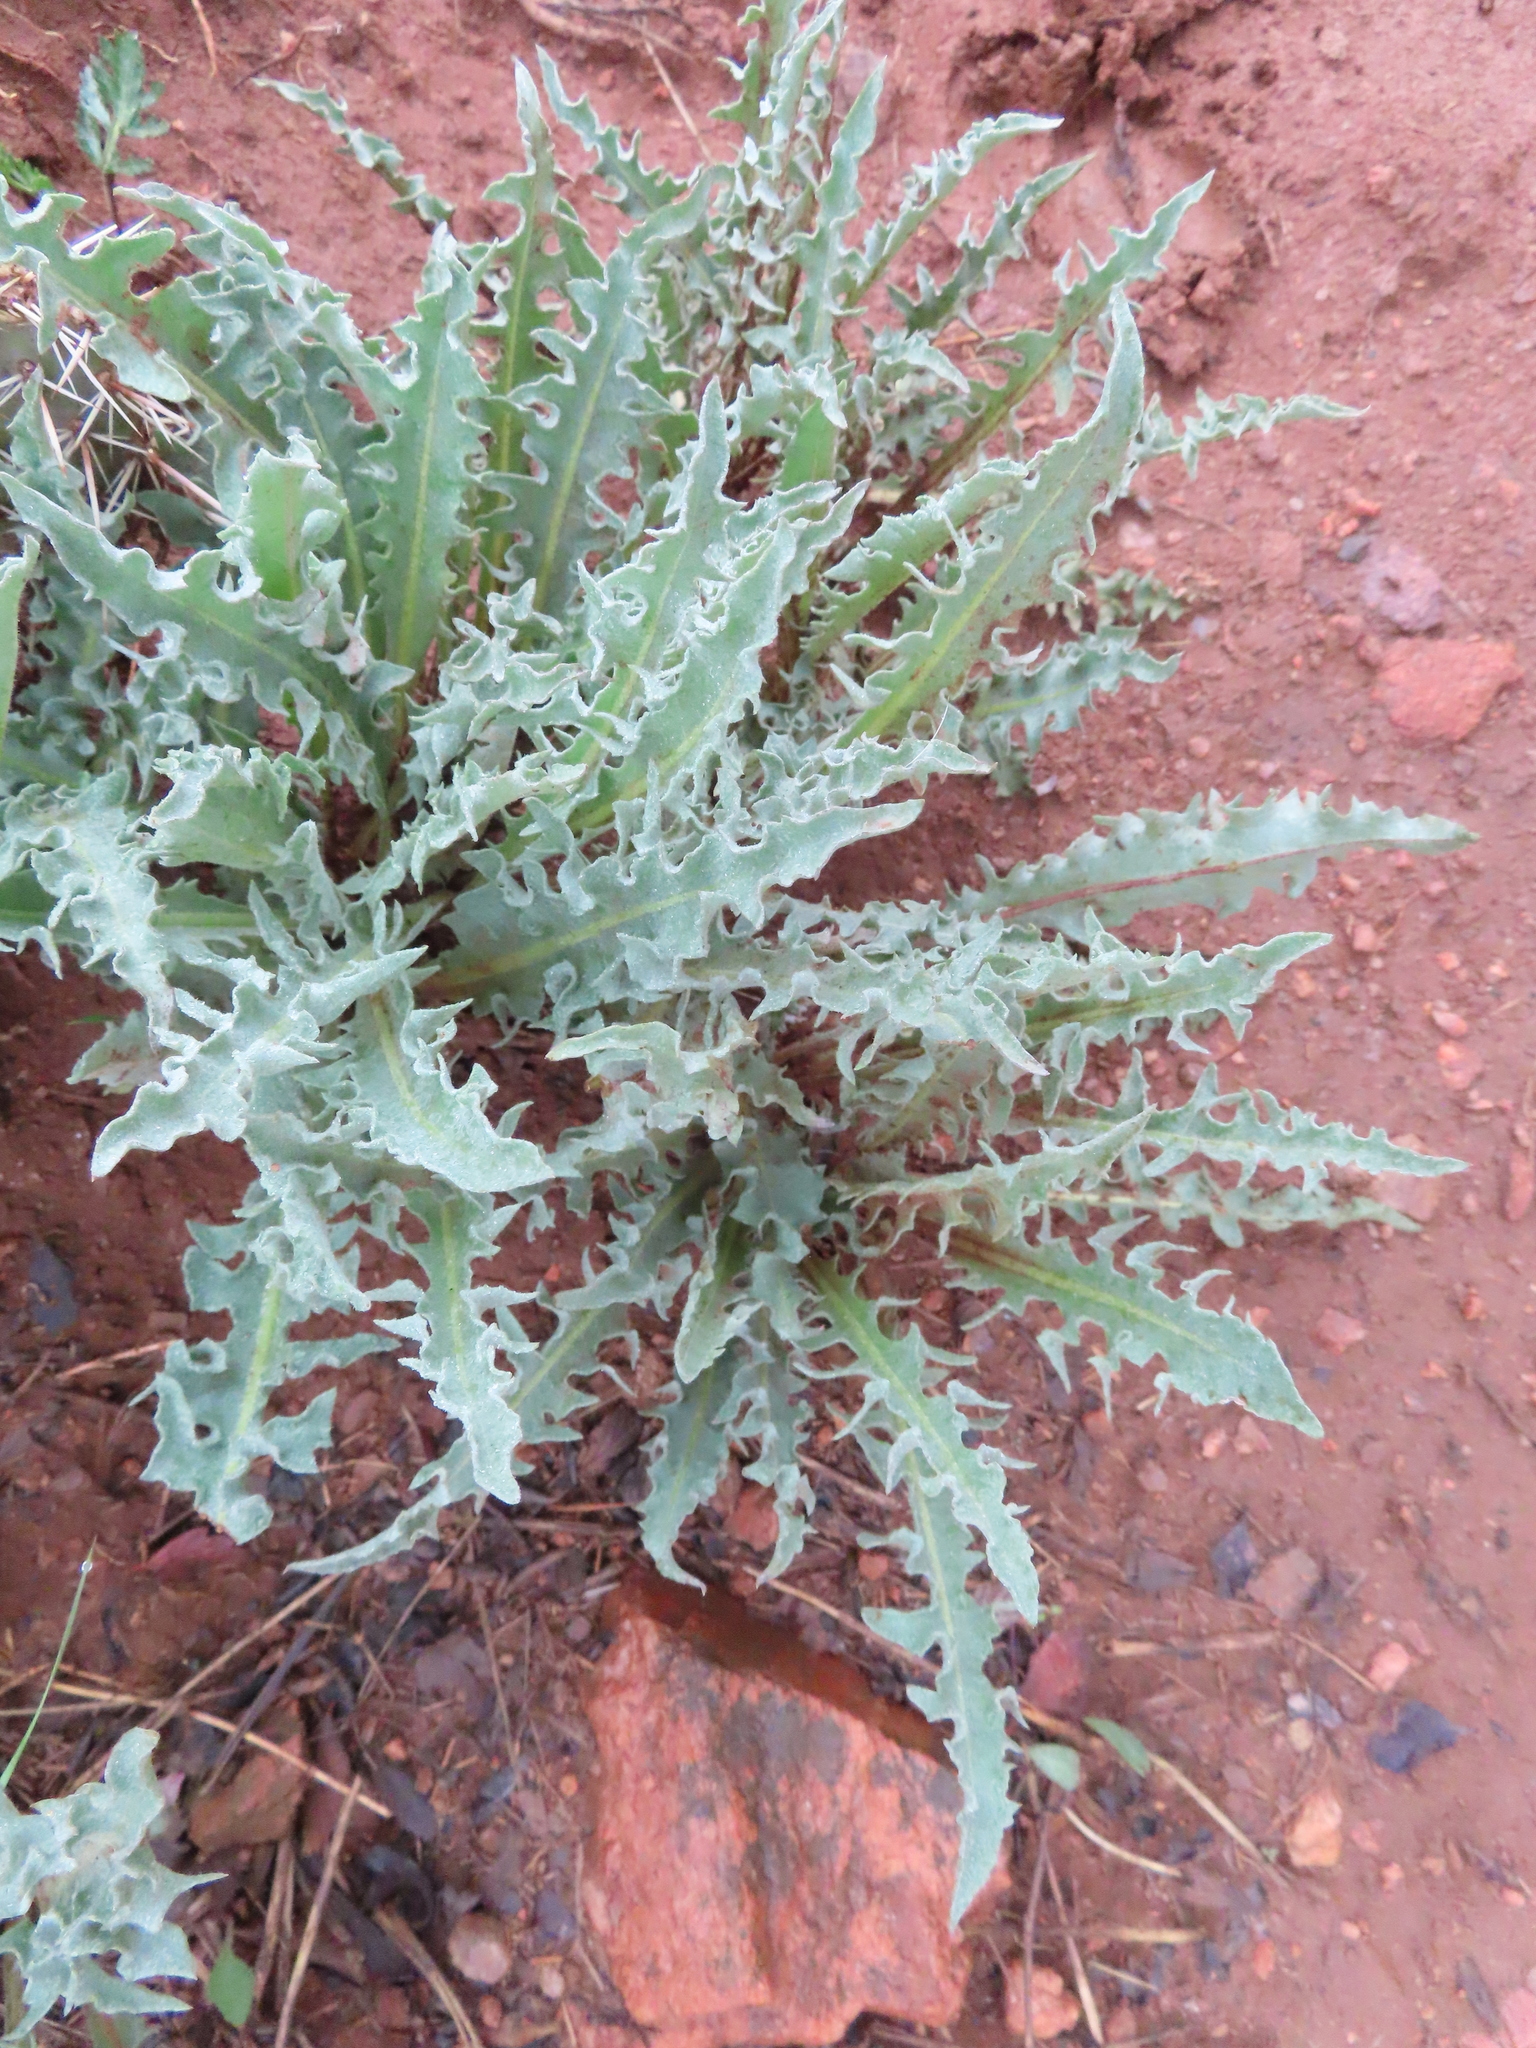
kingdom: Plantae
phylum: Tracheophyta
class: Magnoliopsida
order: Asterales
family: Asteraceae
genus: Crepis
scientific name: Crepis occidentalis
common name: Gray hawk's-beard
